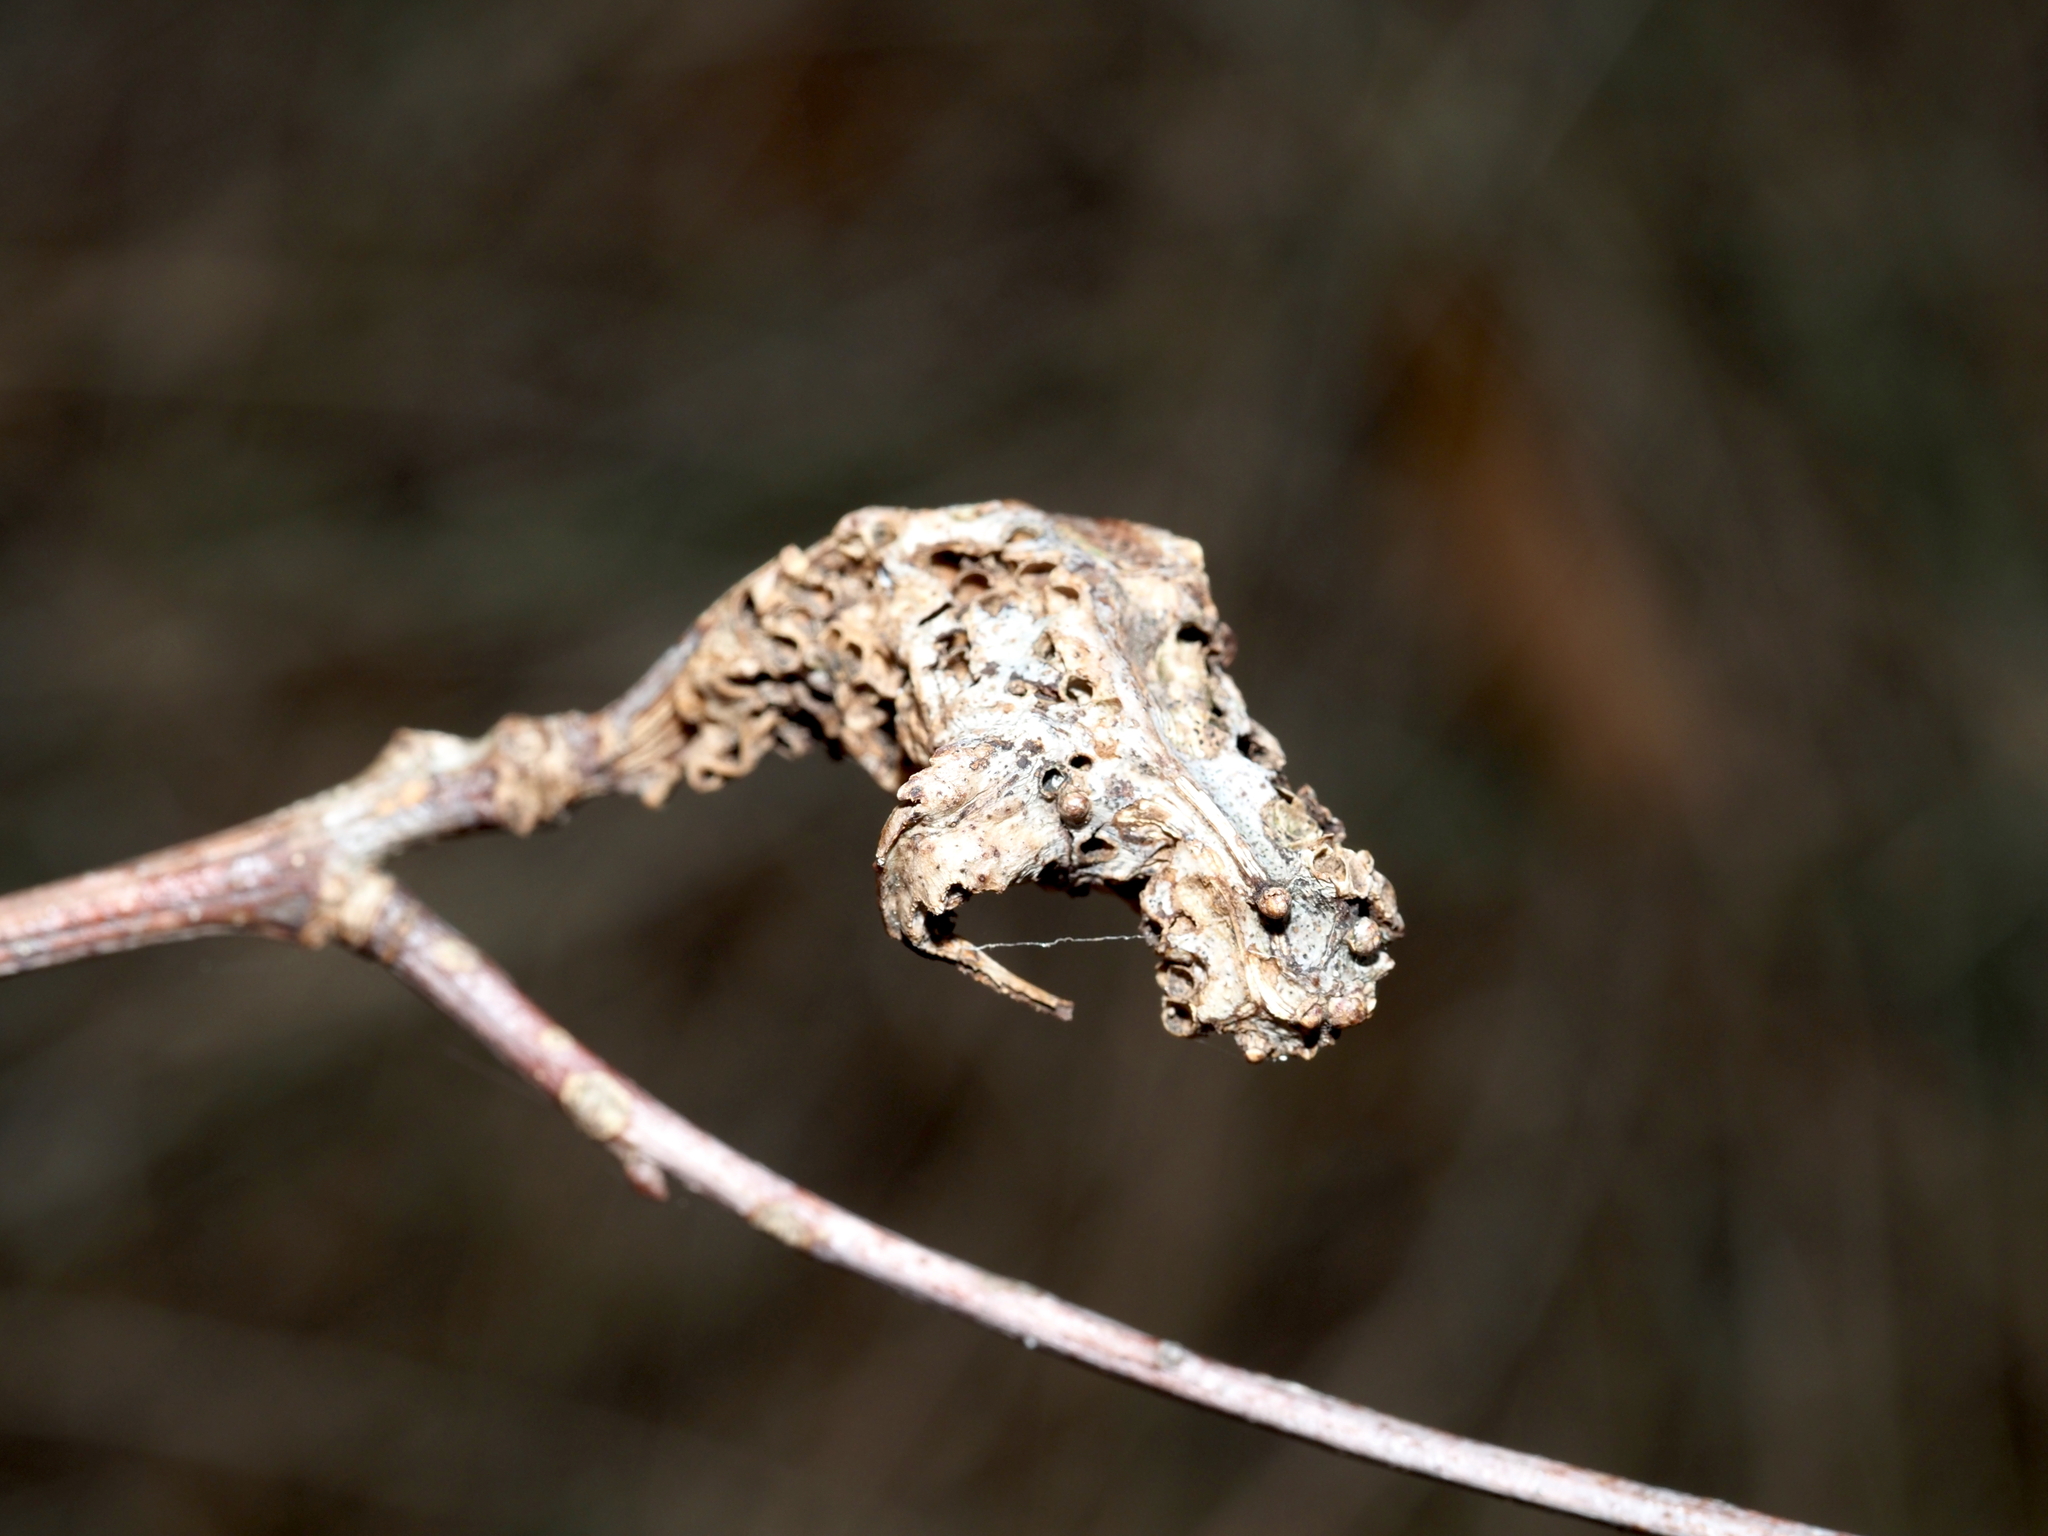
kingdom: Animalia
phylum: Arthropoda
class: Insecta
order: Hymenoptera
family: Cynipidae
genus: Neuroterus
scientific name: Neuroterus quercusbaccarum
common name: Common spangle gall
